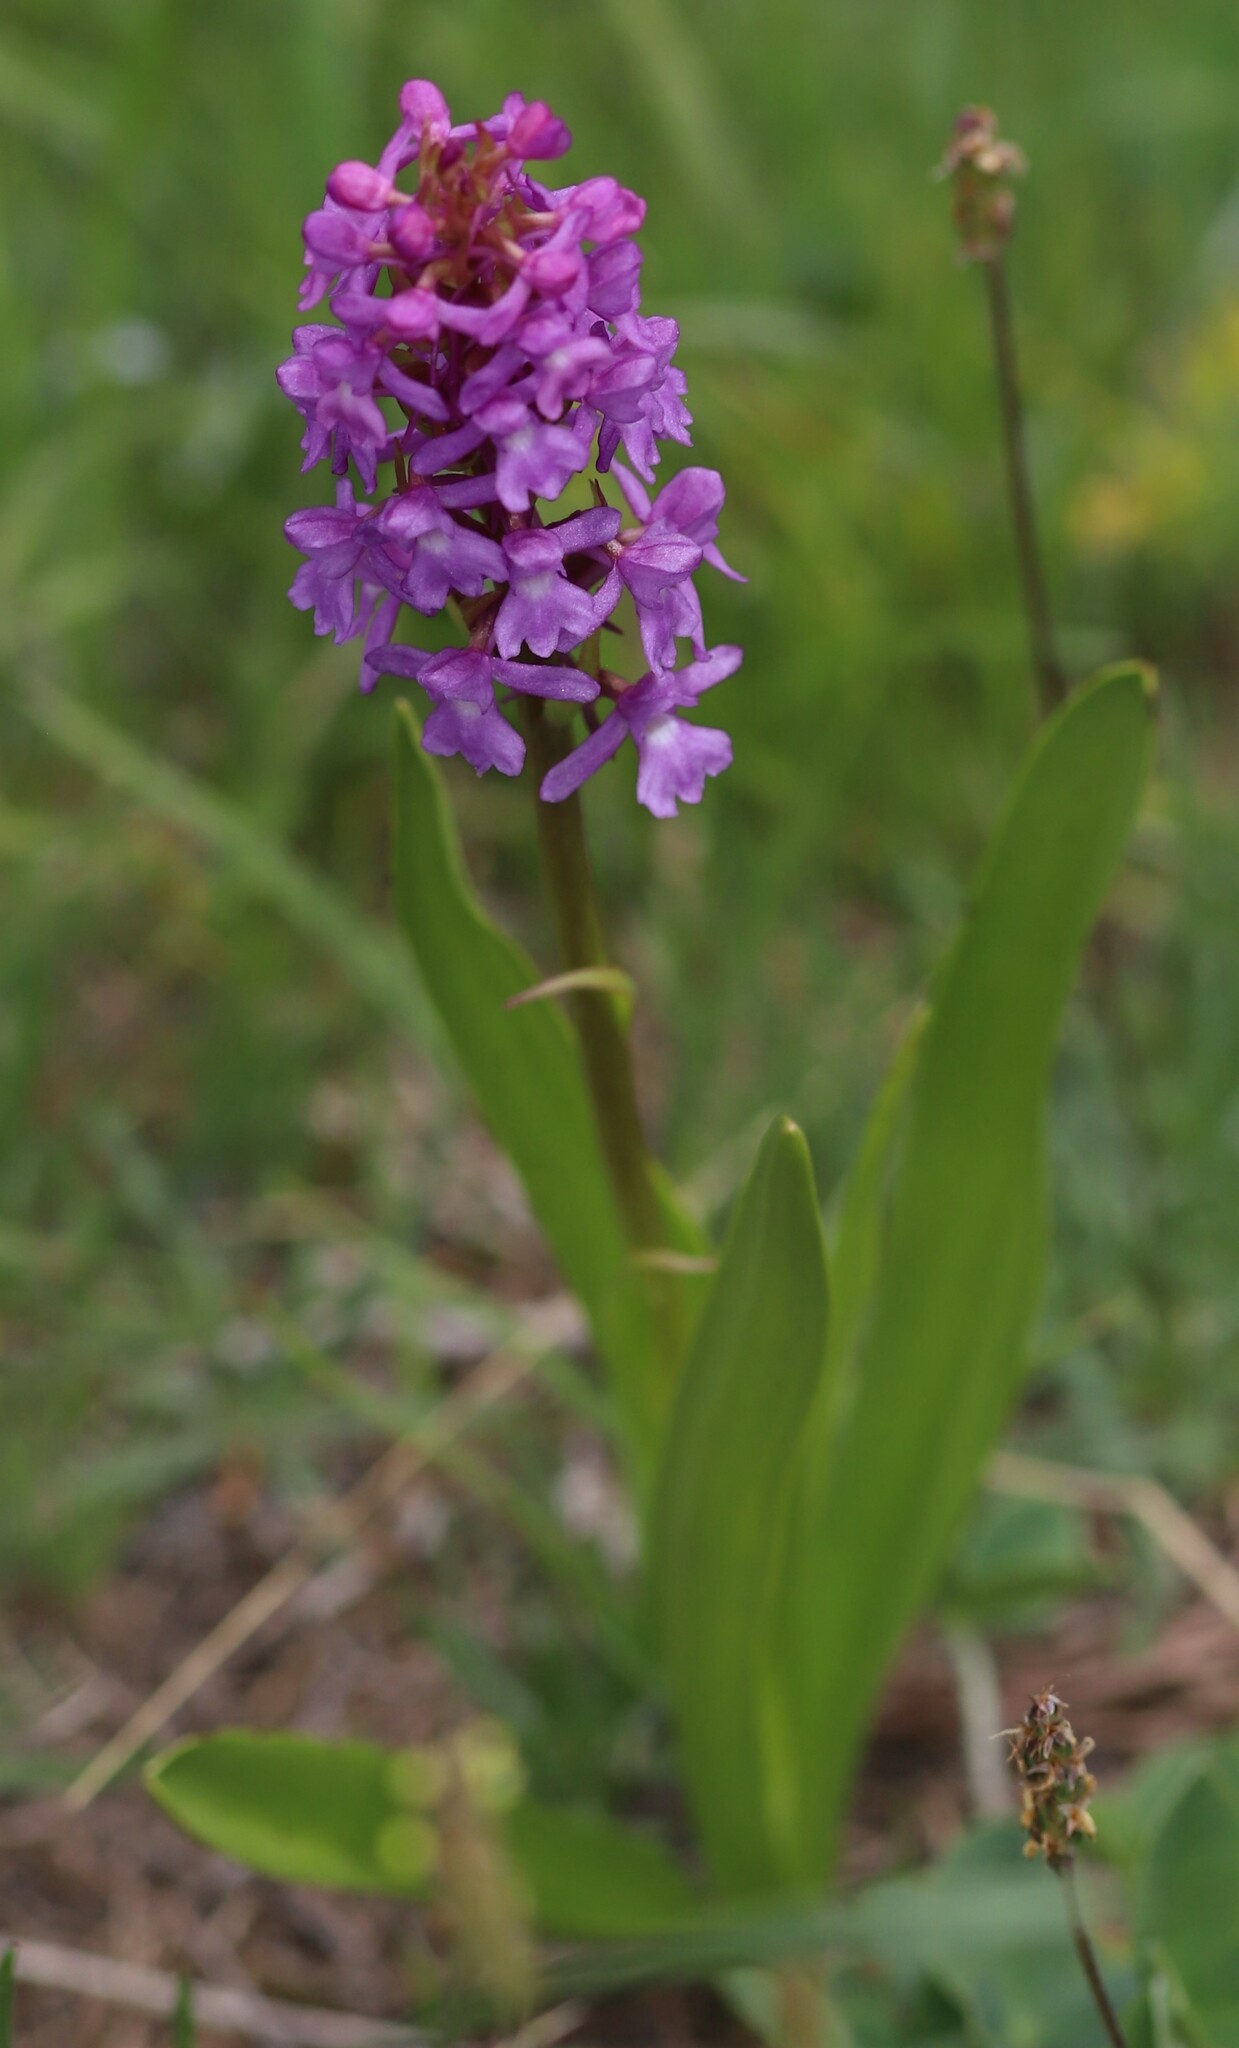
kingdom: Plantae
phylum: Tracheophyta
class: Liliopsida
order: Asparagales
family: Orchidaceae
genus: Gymnadenia
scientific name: Gymnadenia conopsea
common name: Fragrant orchid
